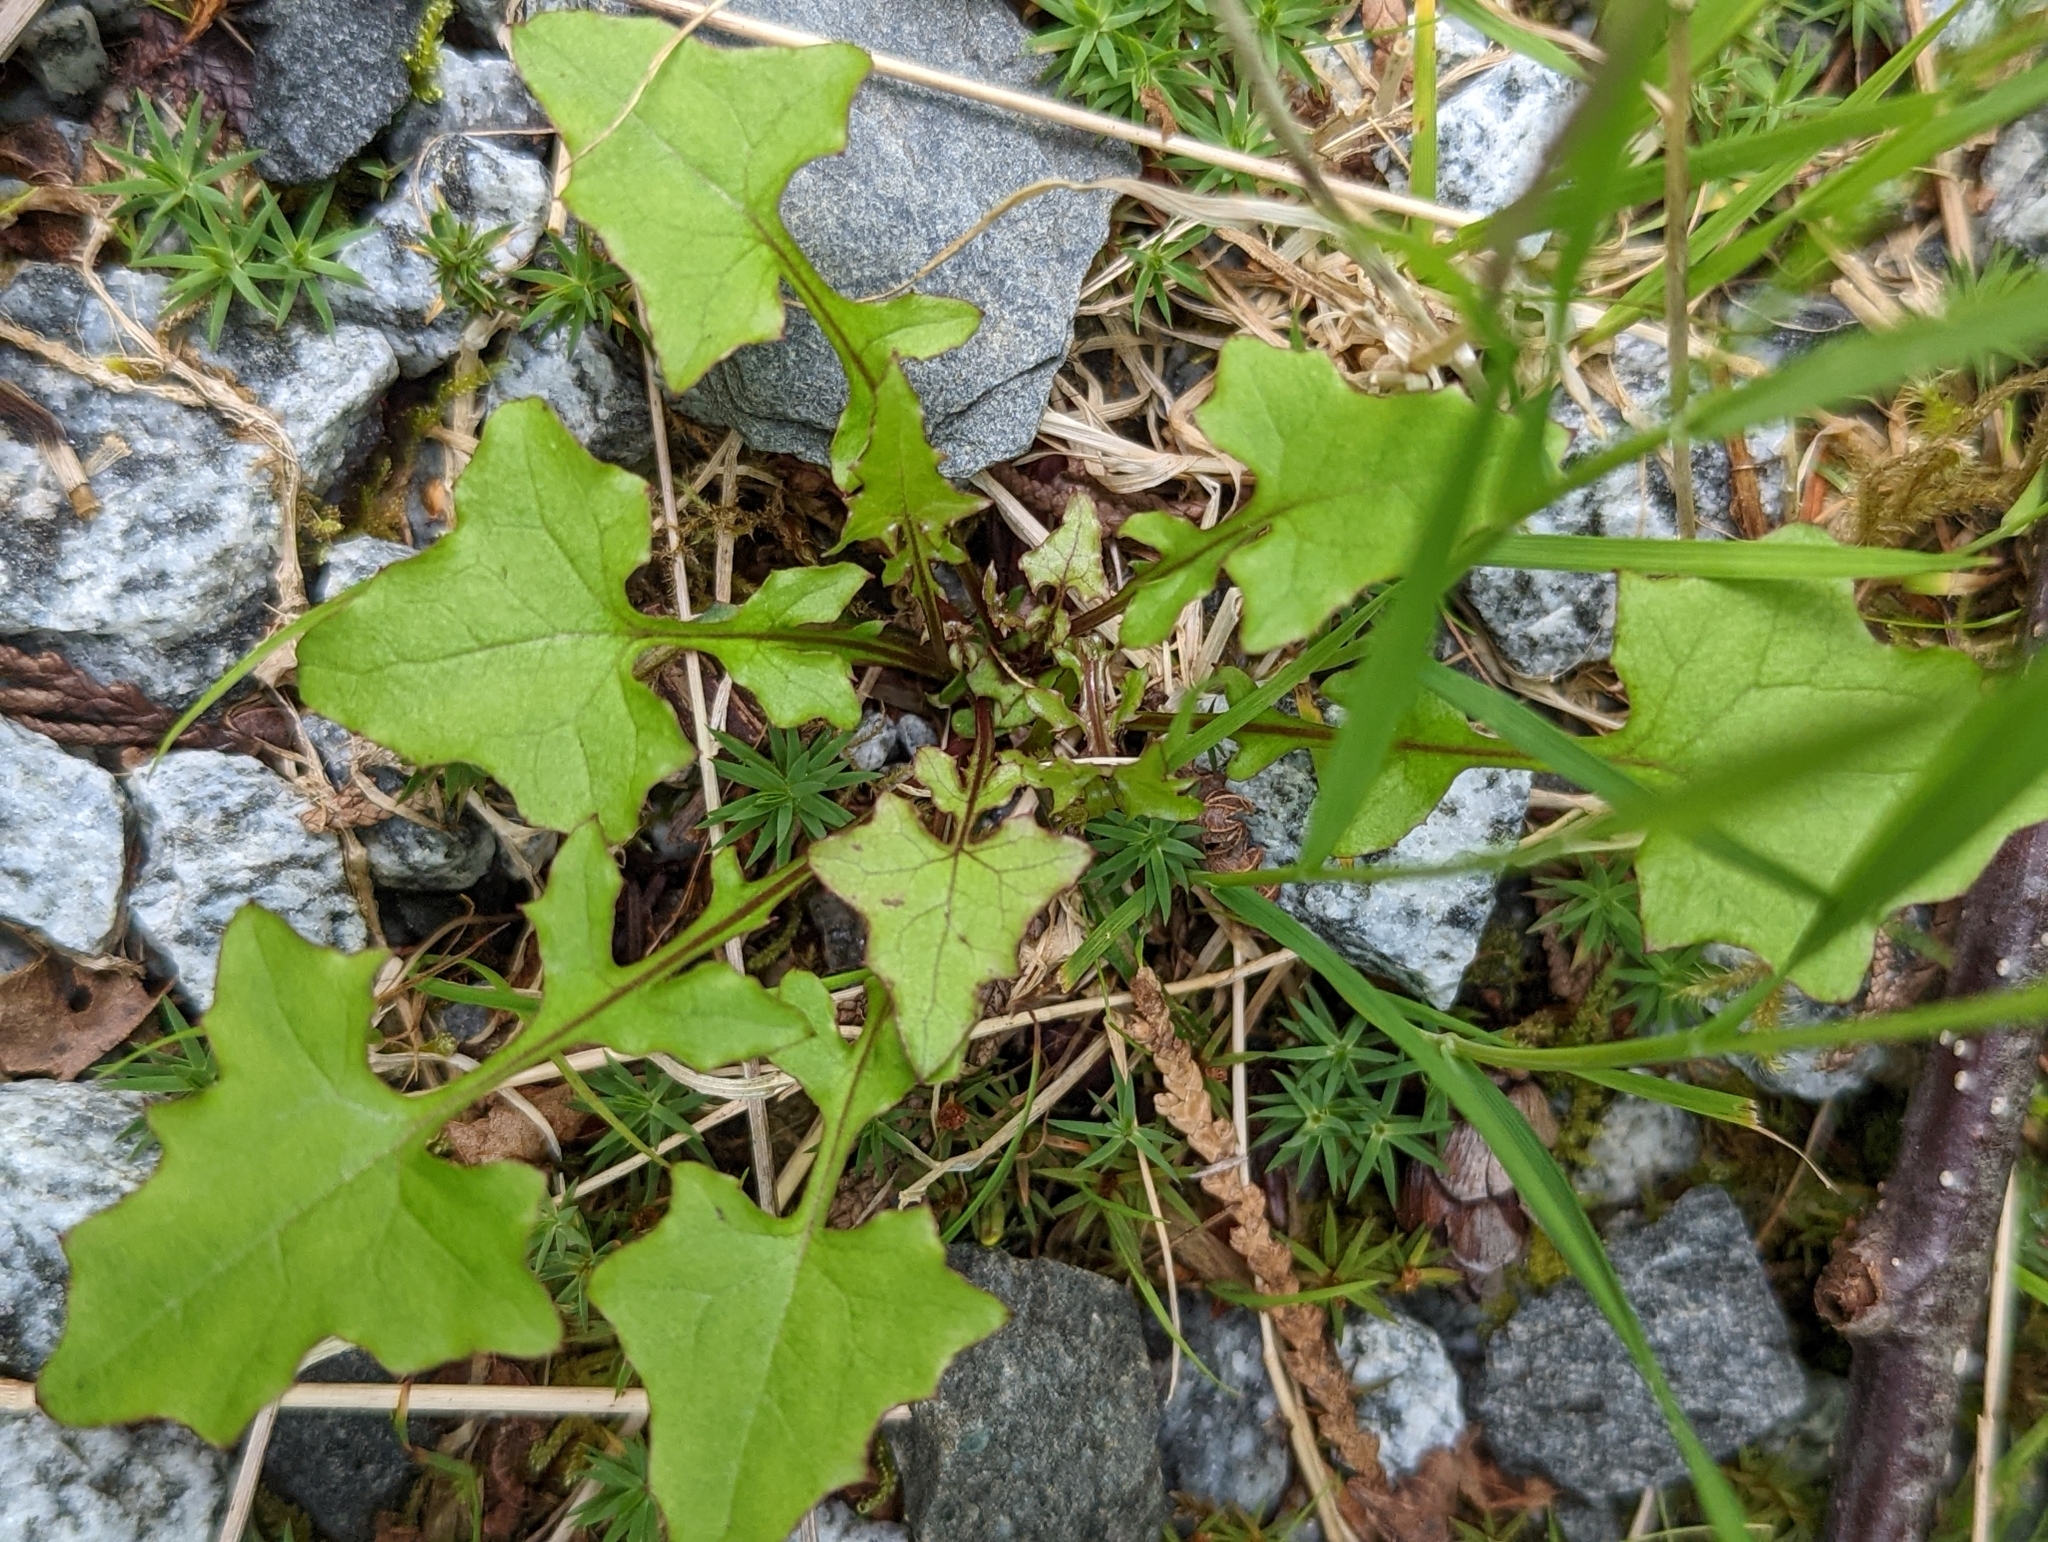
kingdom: Plantae
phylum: Tracheophyta
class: Magnoliopsida
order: Asterales
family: Asteraceae
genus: Mycelis
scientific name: Mycelis muralis
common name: Wall lettuce
